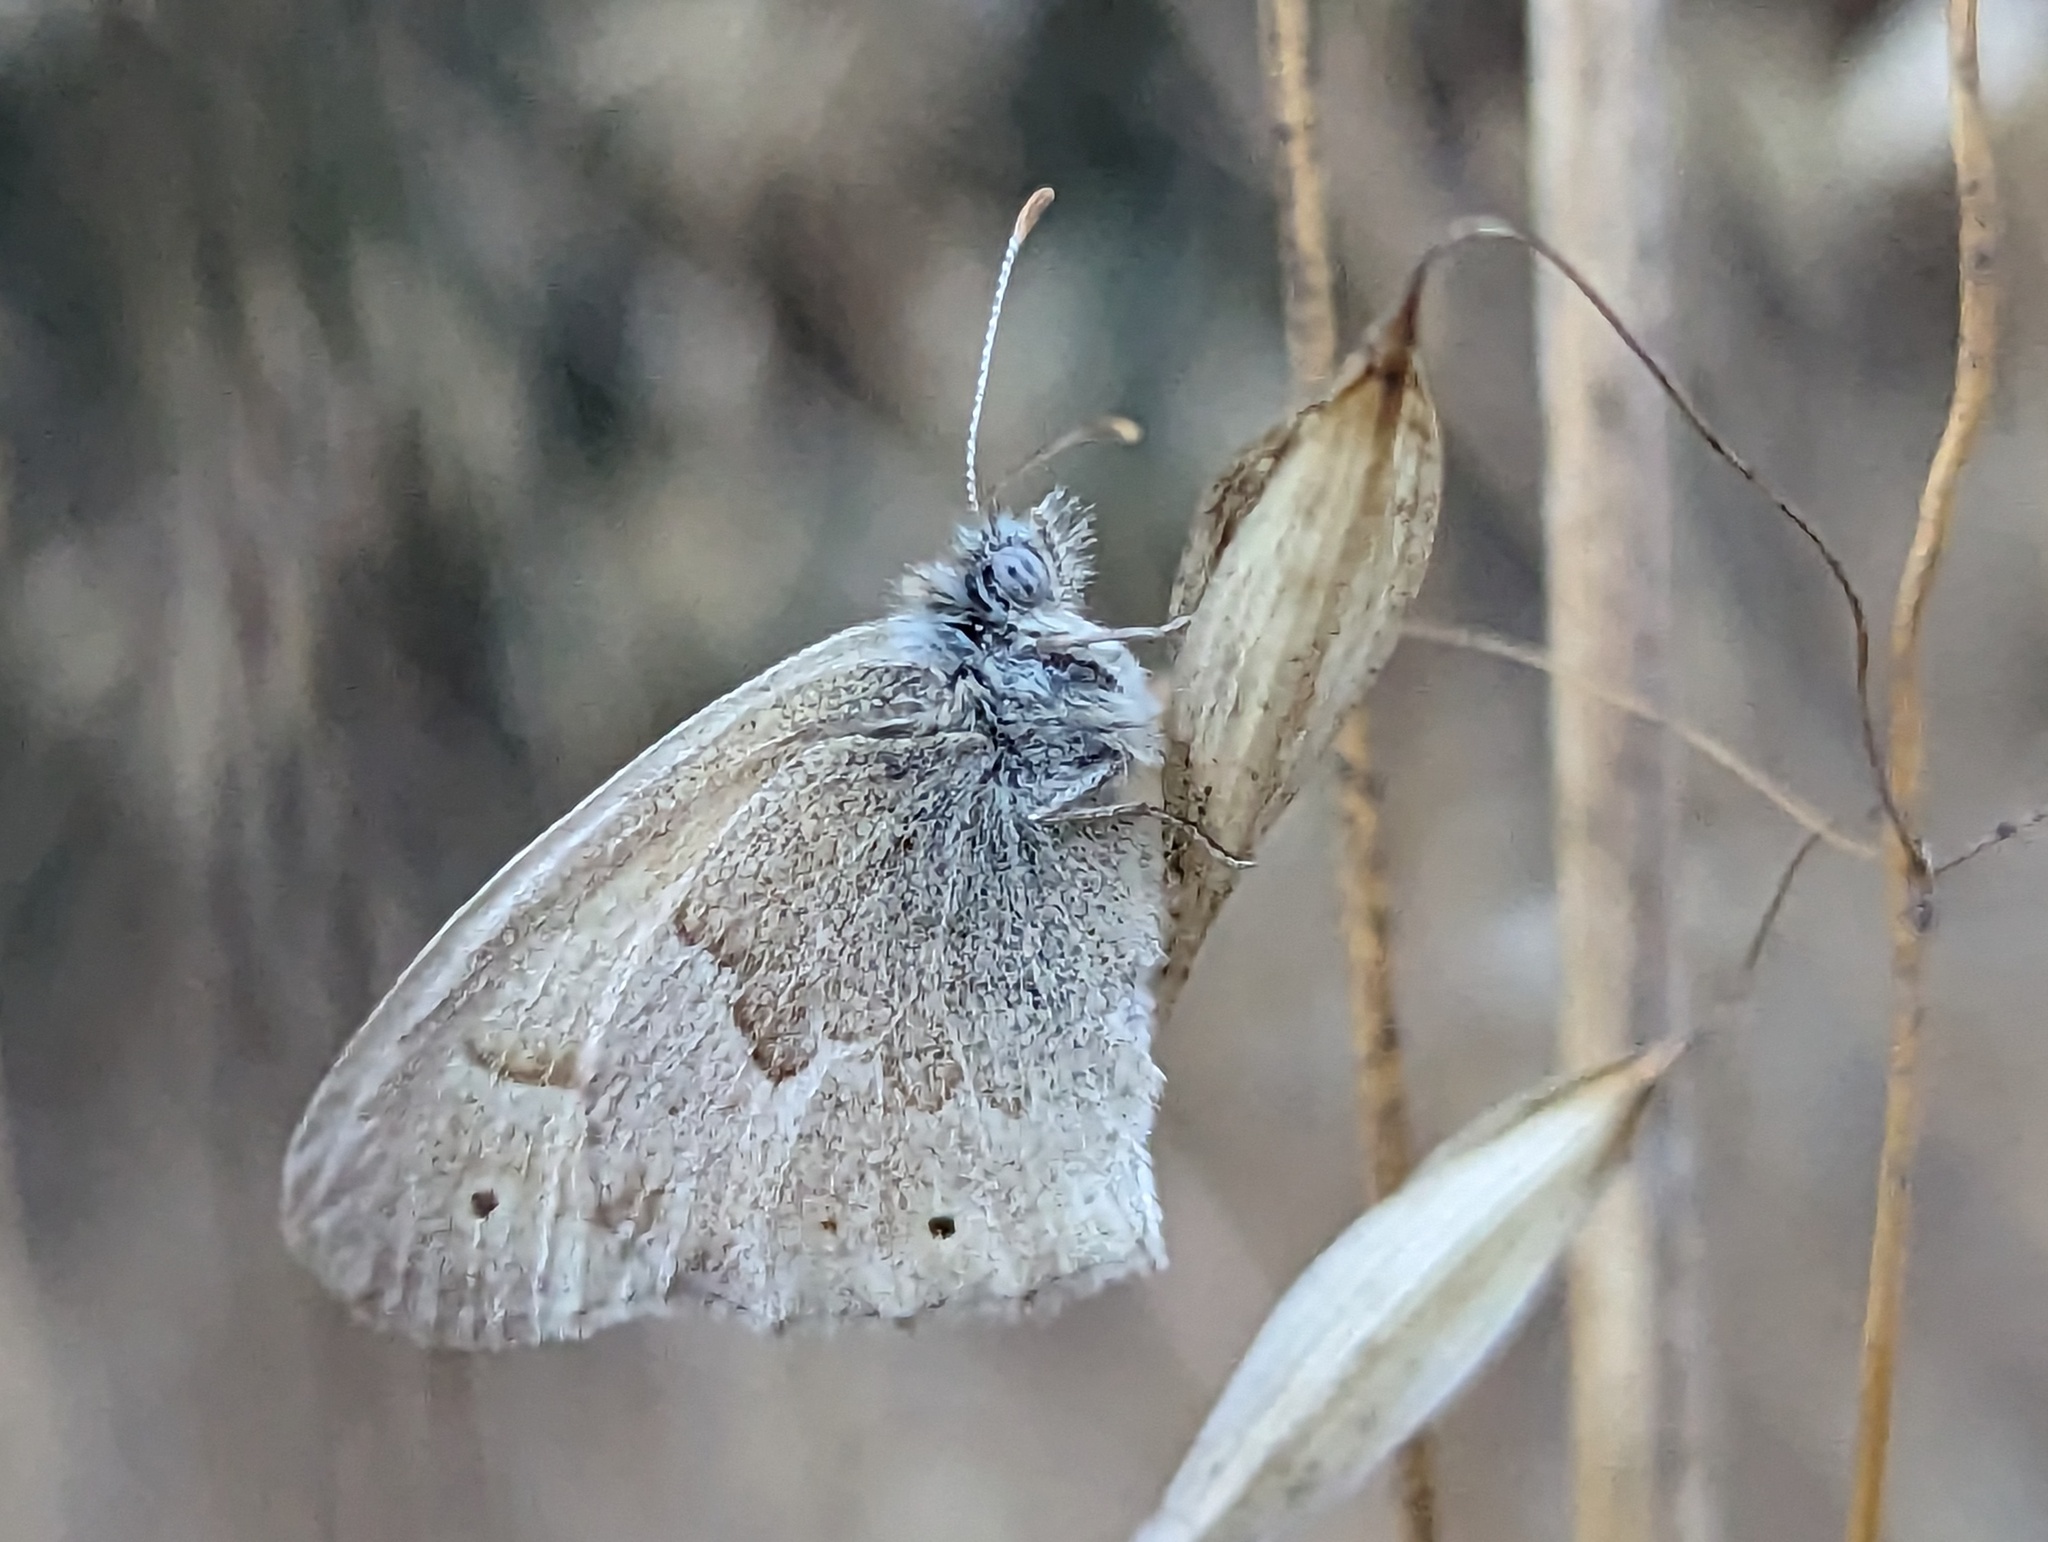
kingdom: Animalia
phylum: Arthropoda
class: Insecta
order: Lepidoptera
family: Nymphalidae
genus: Coenonympha
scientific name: Coenonympha california
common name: Common ringlet
